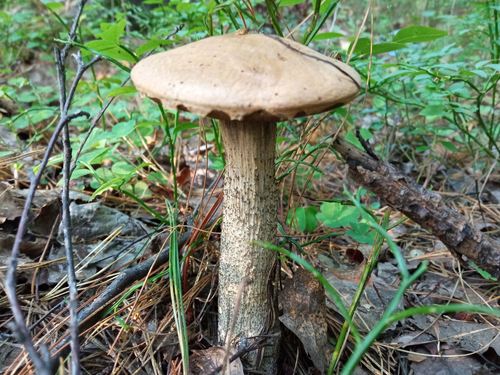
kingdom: Fungi
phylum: Basidiomycota
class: Agaricomycetes
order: Boletales
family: Boletaceae
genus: Leccinum
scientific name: Leccinum versipelle
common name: Orange birch bolete
